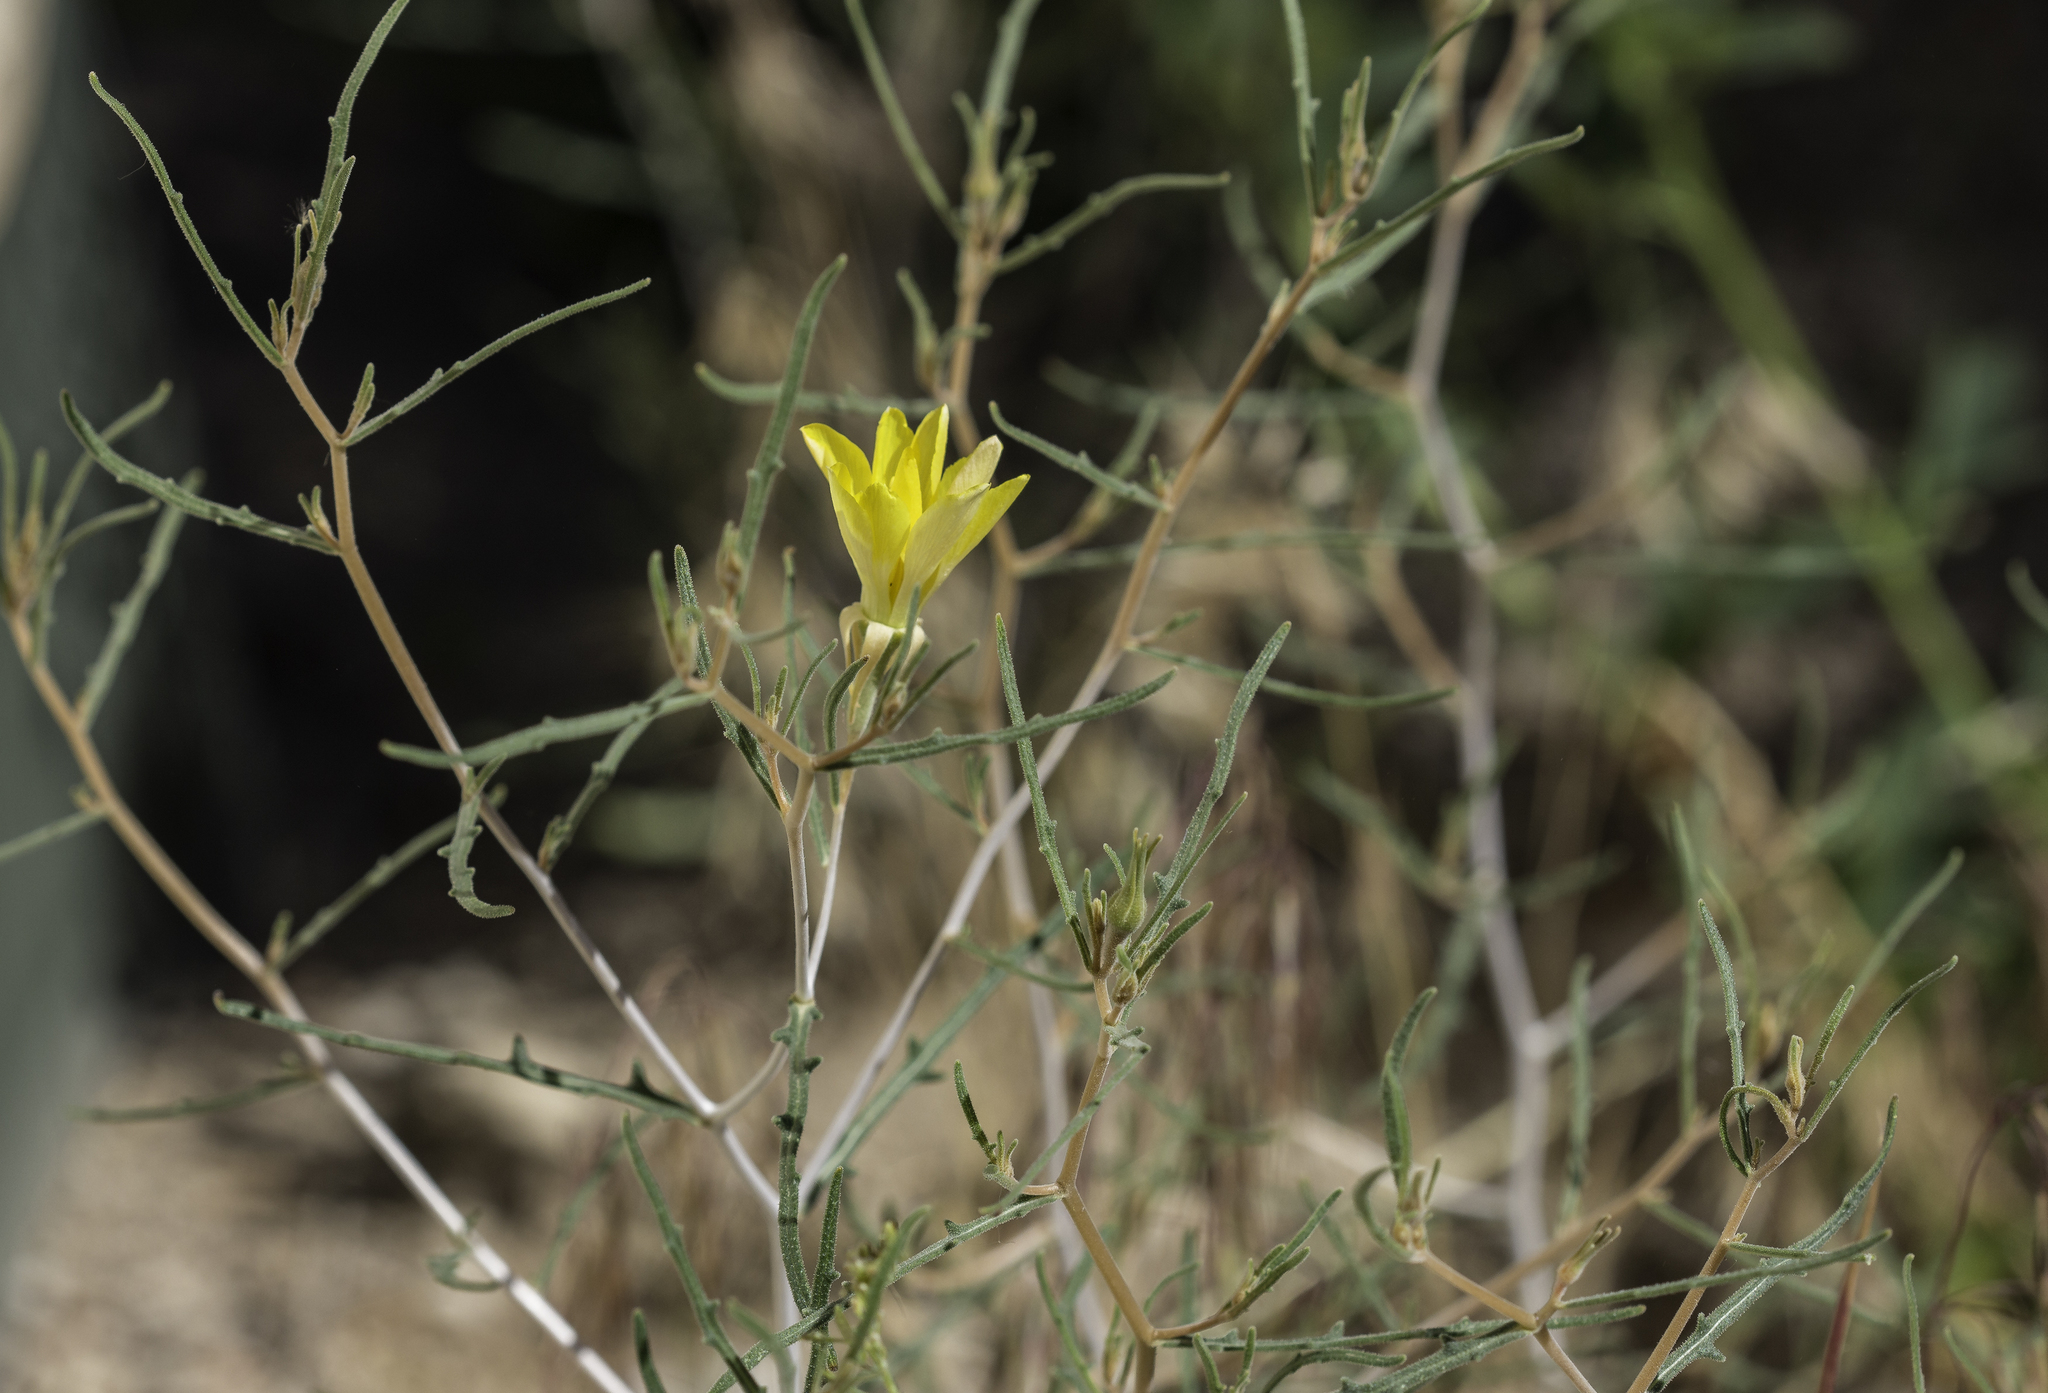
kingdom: Plantae
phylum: Tracheophyta
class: Magnoliopsida
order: Cornales
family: Loasaceae
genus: Mentzelia
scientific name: Mentzelia springeri
